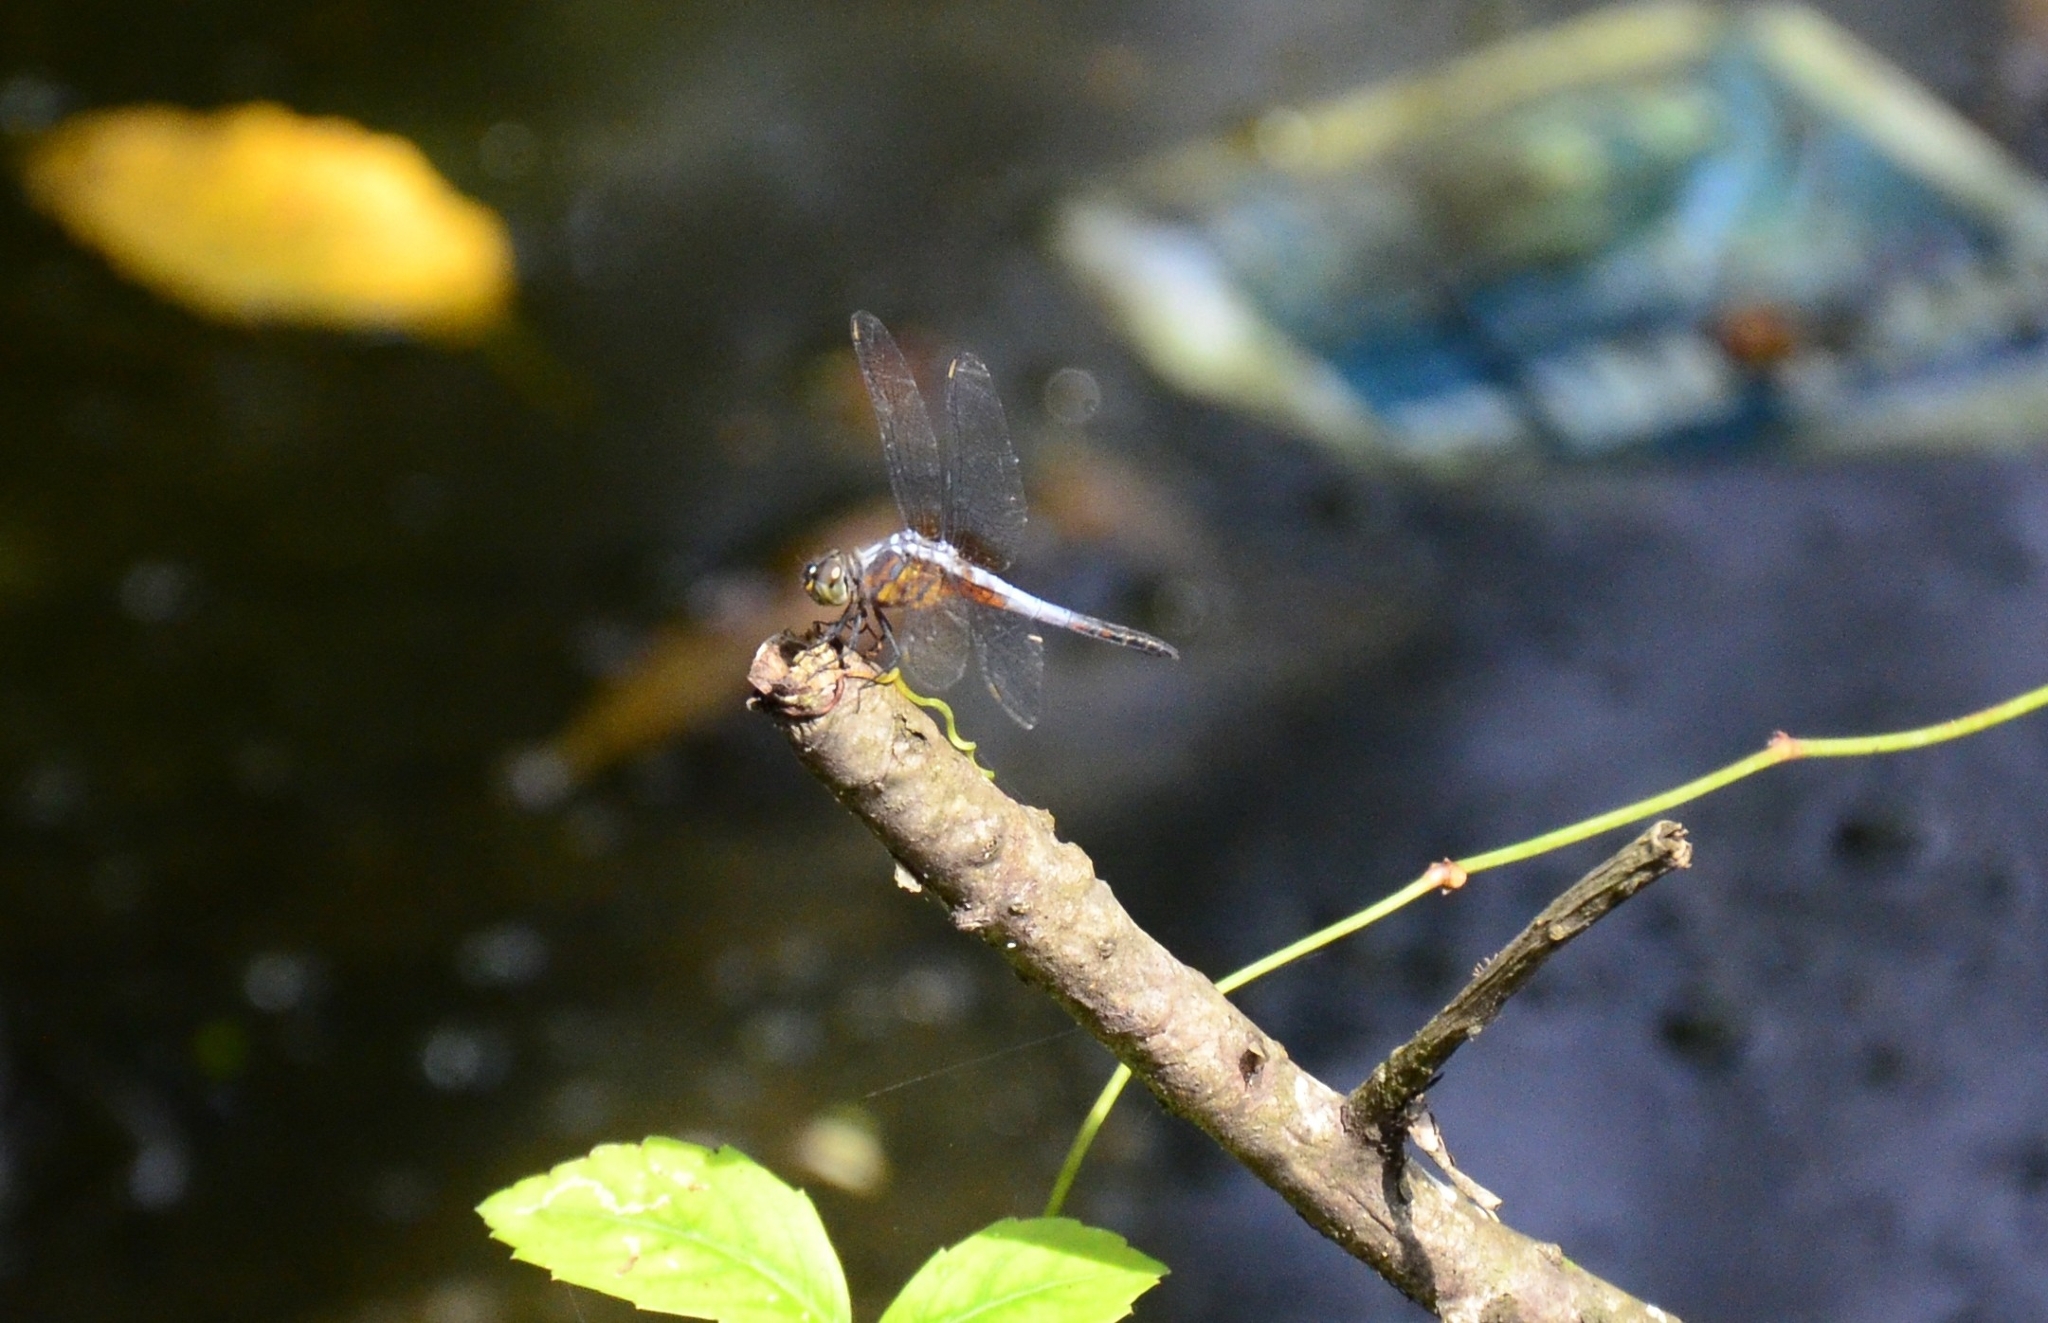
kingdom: Animalia
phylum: Arthropoda
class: Insecta
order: Odonata
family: Libellulidae
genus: Brachydiplax
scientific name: Brachydiplax chalybea
